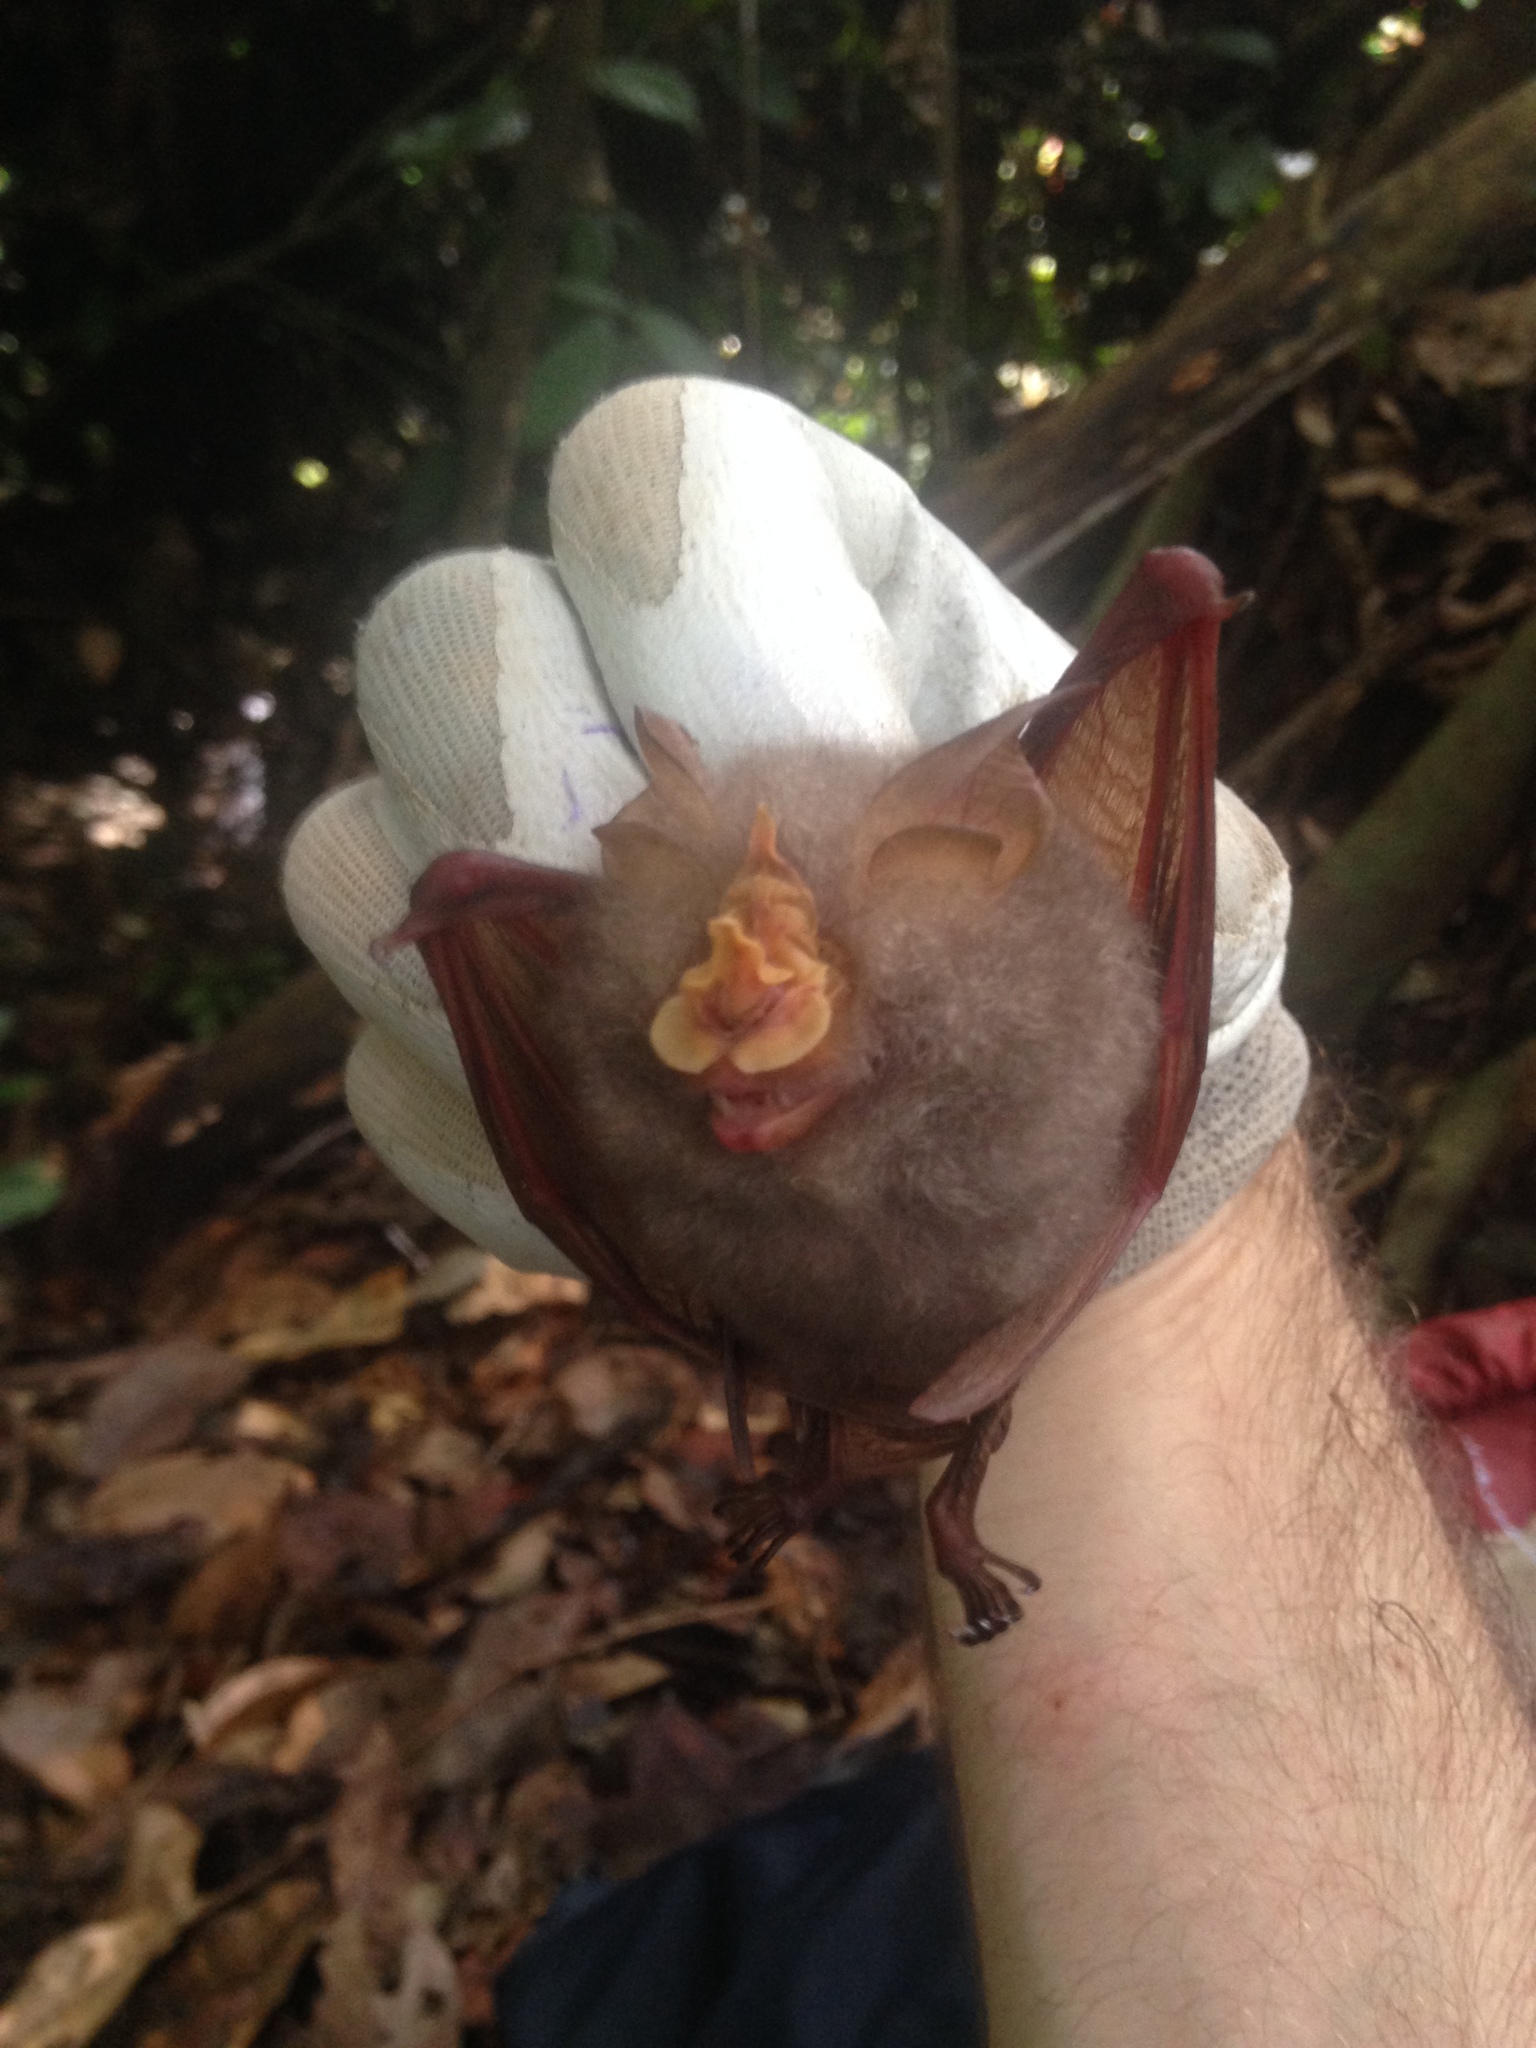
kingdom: Animalia
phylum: Chordata
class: Mammalia
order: Chiroptera
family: Rhinolophidae
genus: Rhinolophus
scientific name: Rhinolophus trifoliatus
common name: Trefoil horseshoe bat
